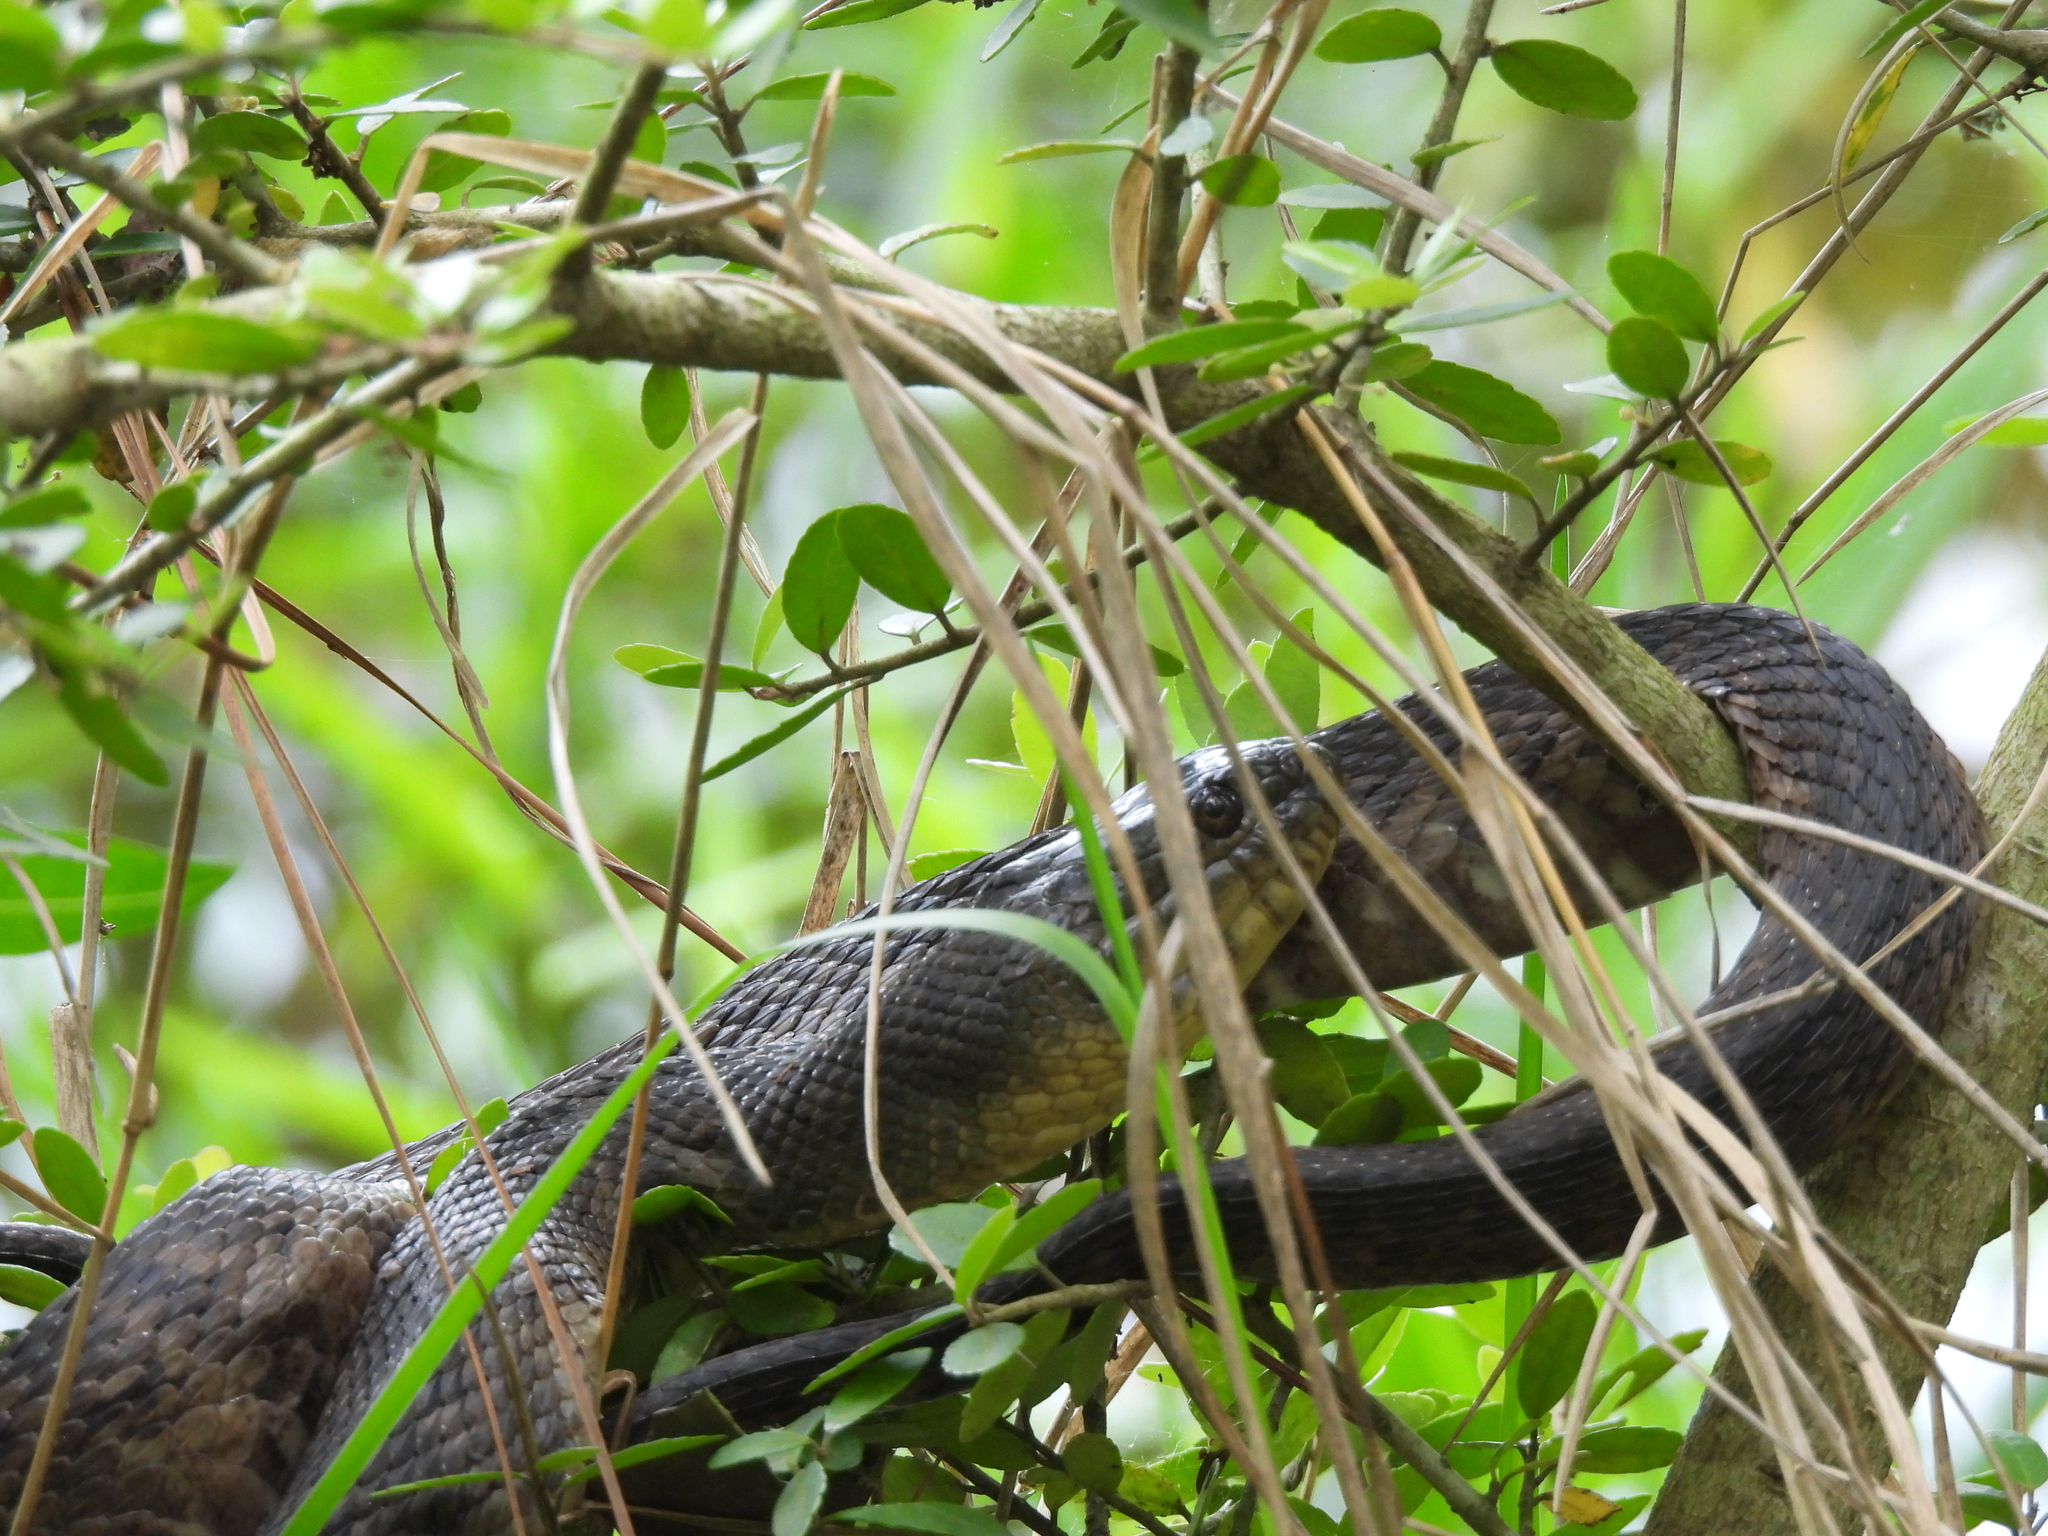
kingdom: Animalia
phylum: Chordata
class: Squamata
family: Colubridae
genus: Nerodia
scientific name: Nerodia cyclopion
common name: Mississippi green water snake
